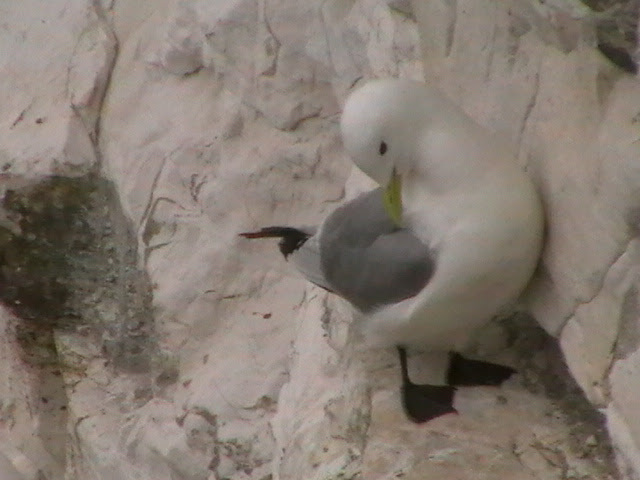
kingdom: Animalia
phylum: Chordata
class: Aves
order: Charadriiformes
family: Laridae
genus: Rissa
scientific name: Rissa tridactyla
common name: Black-legged kittiwake
